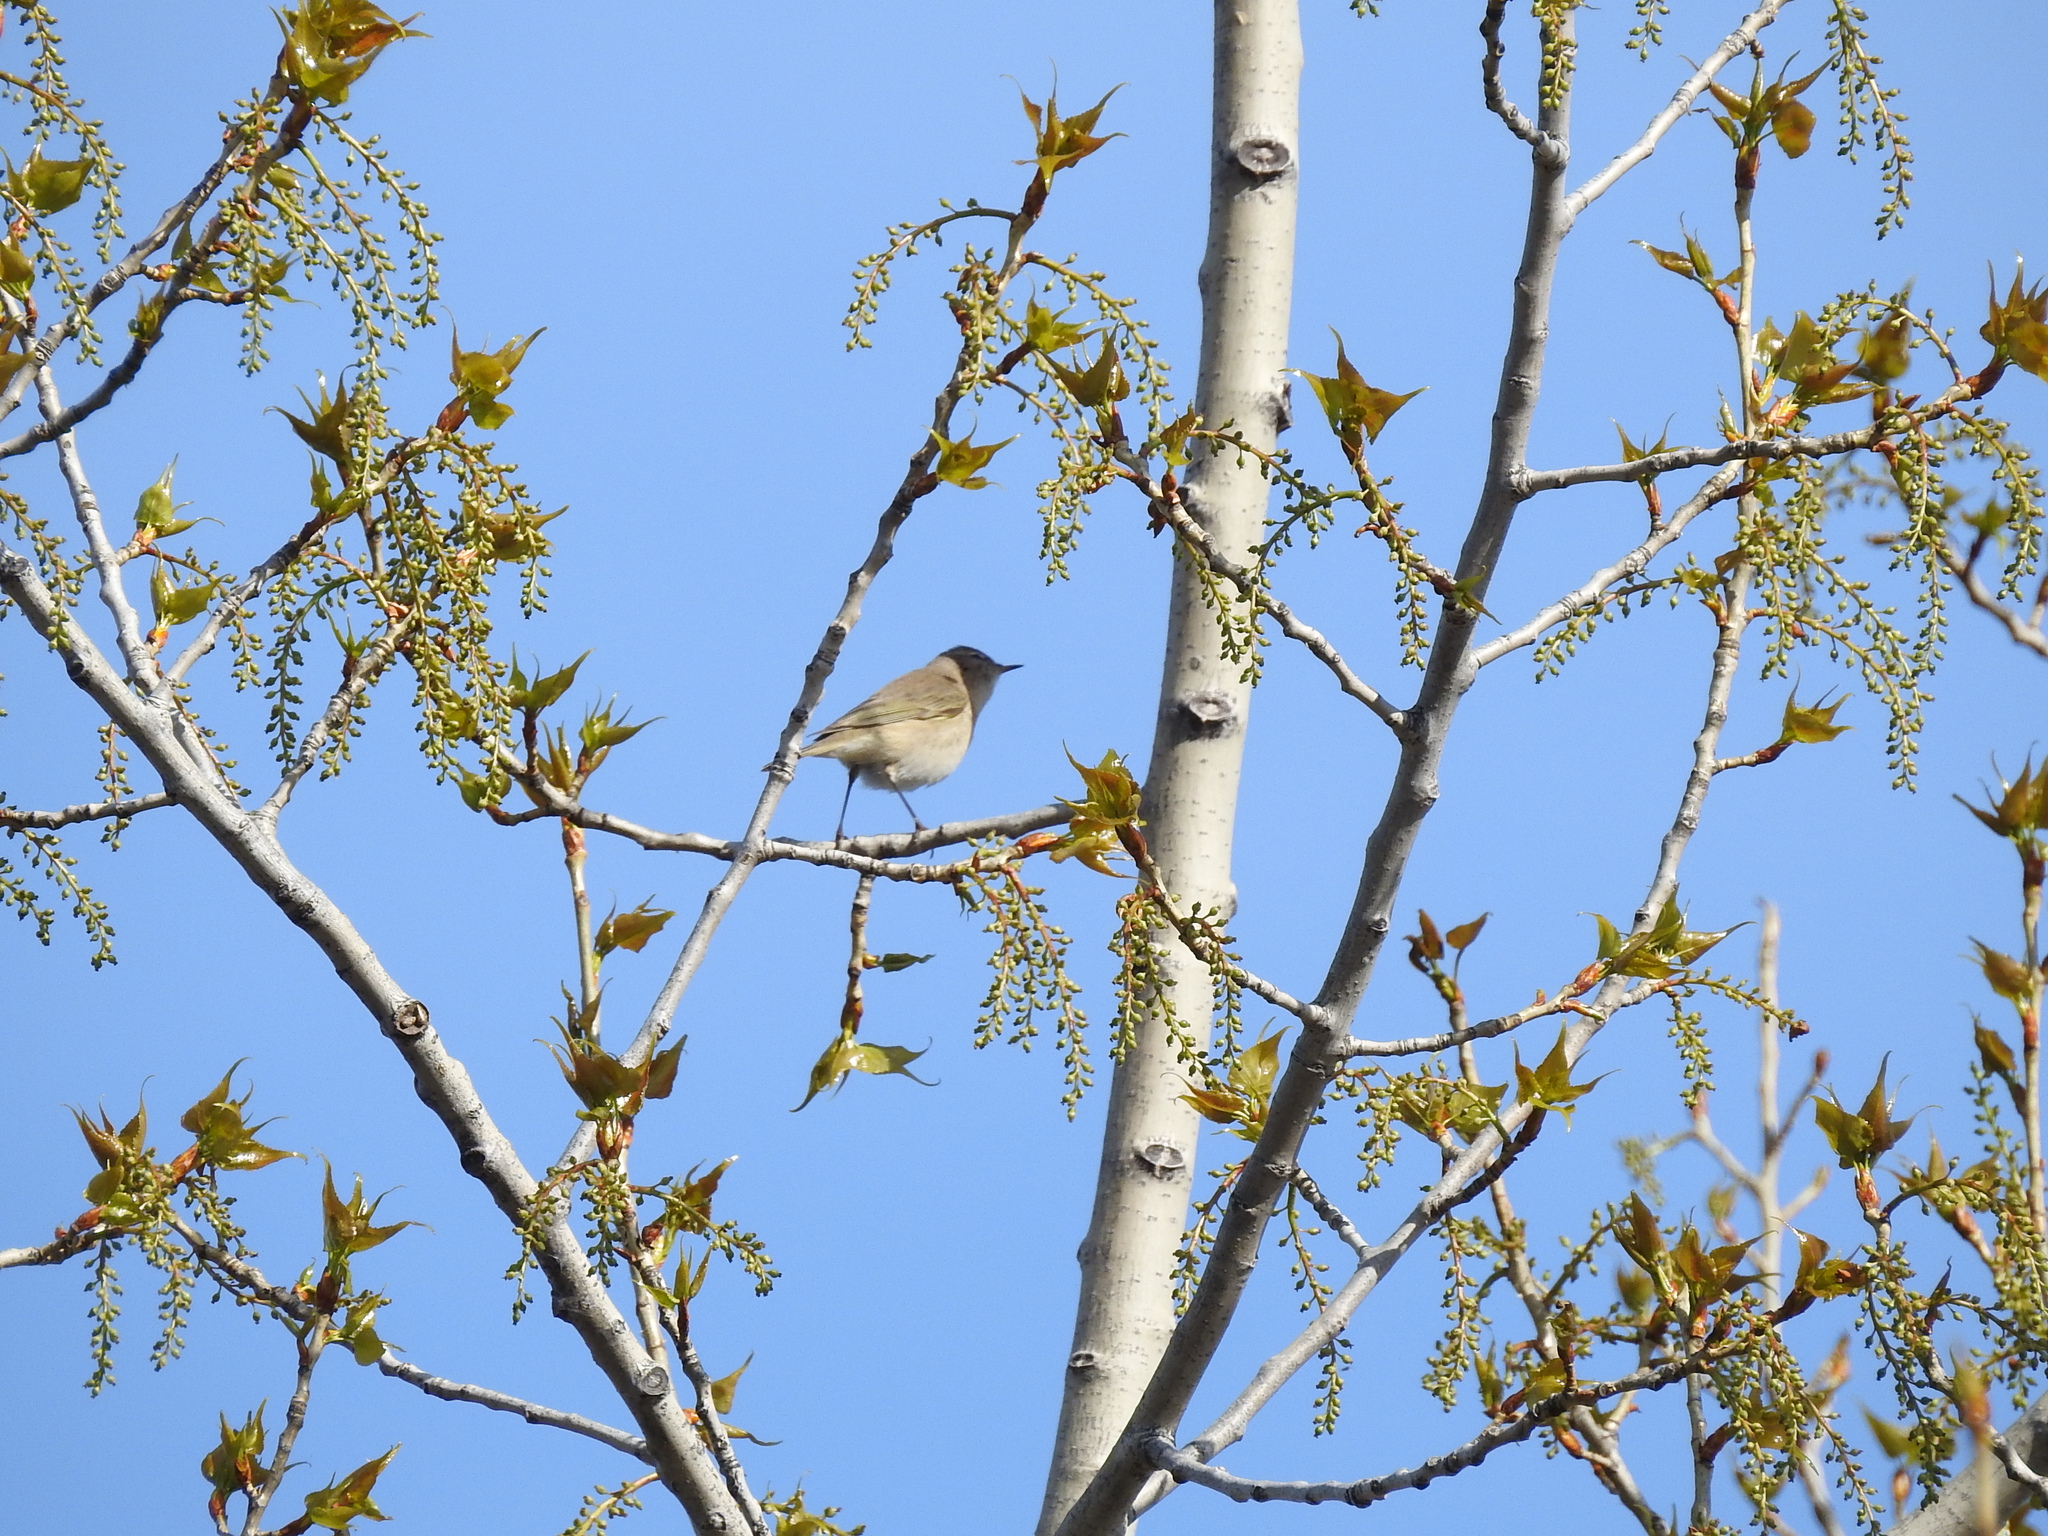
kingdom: Animalia
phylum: Chordata
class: Aves
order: Passeriformes
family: Phylloscopidae
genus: Phylloscopus
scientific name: Phylloscopus collybita
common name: Common chiffchaff
